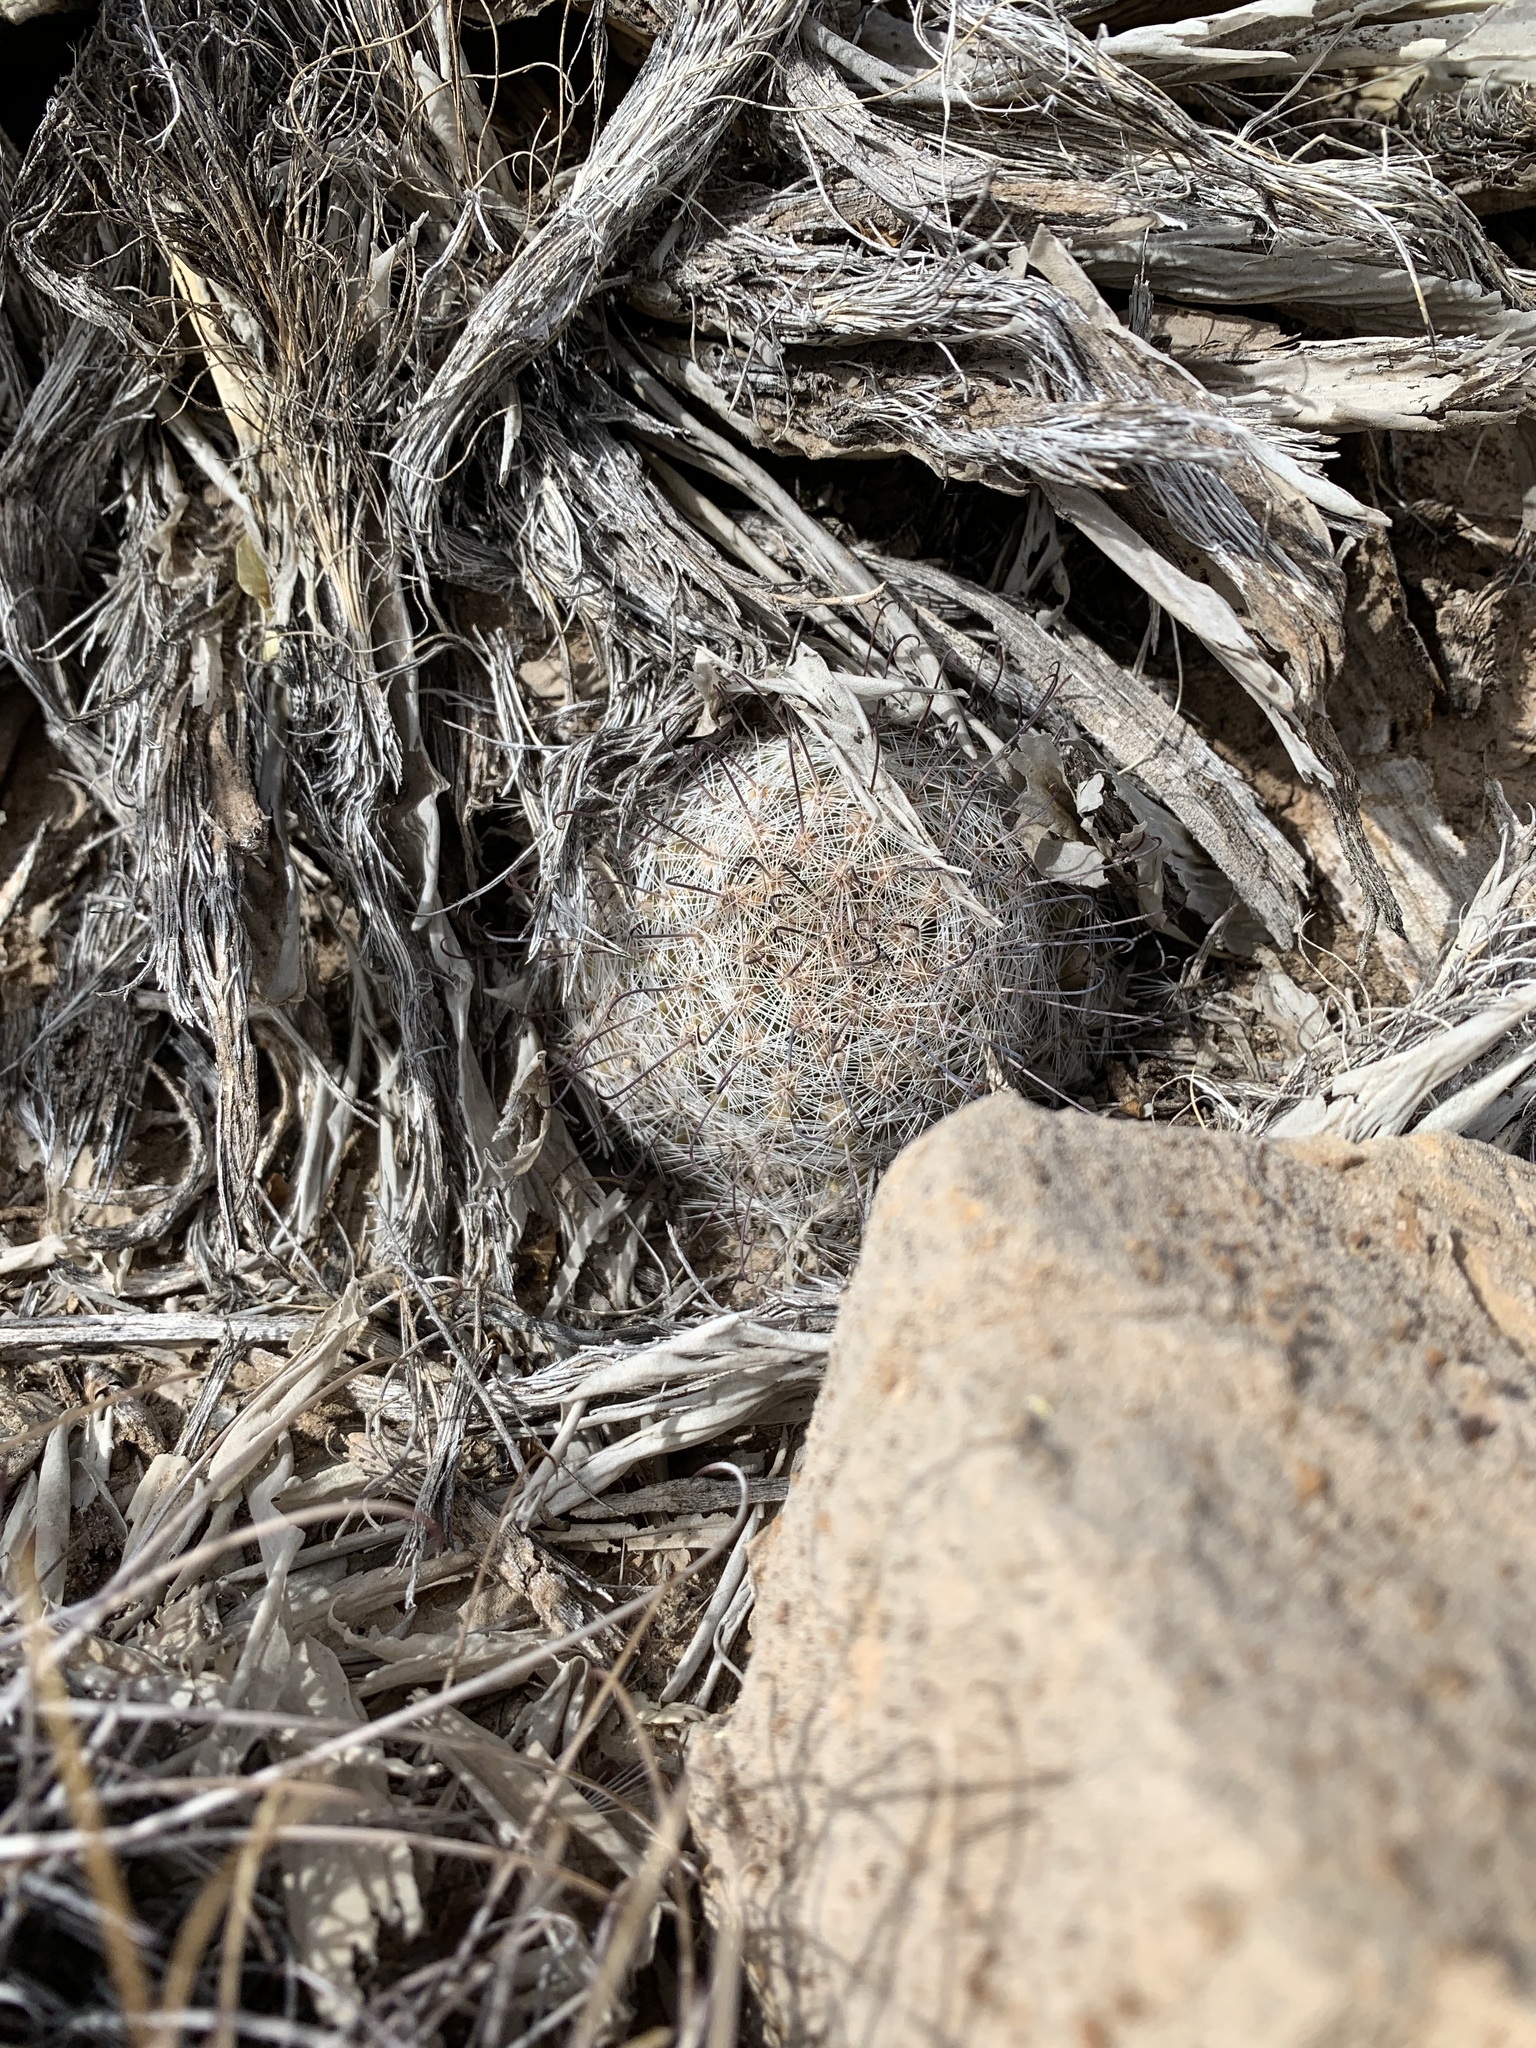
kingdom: Plantae
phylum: Tracheophyta
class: Magnoliopsida
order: Caryophyllales
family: Cactaceae
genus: Cochemiea
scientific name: Cochemiea grahamii
